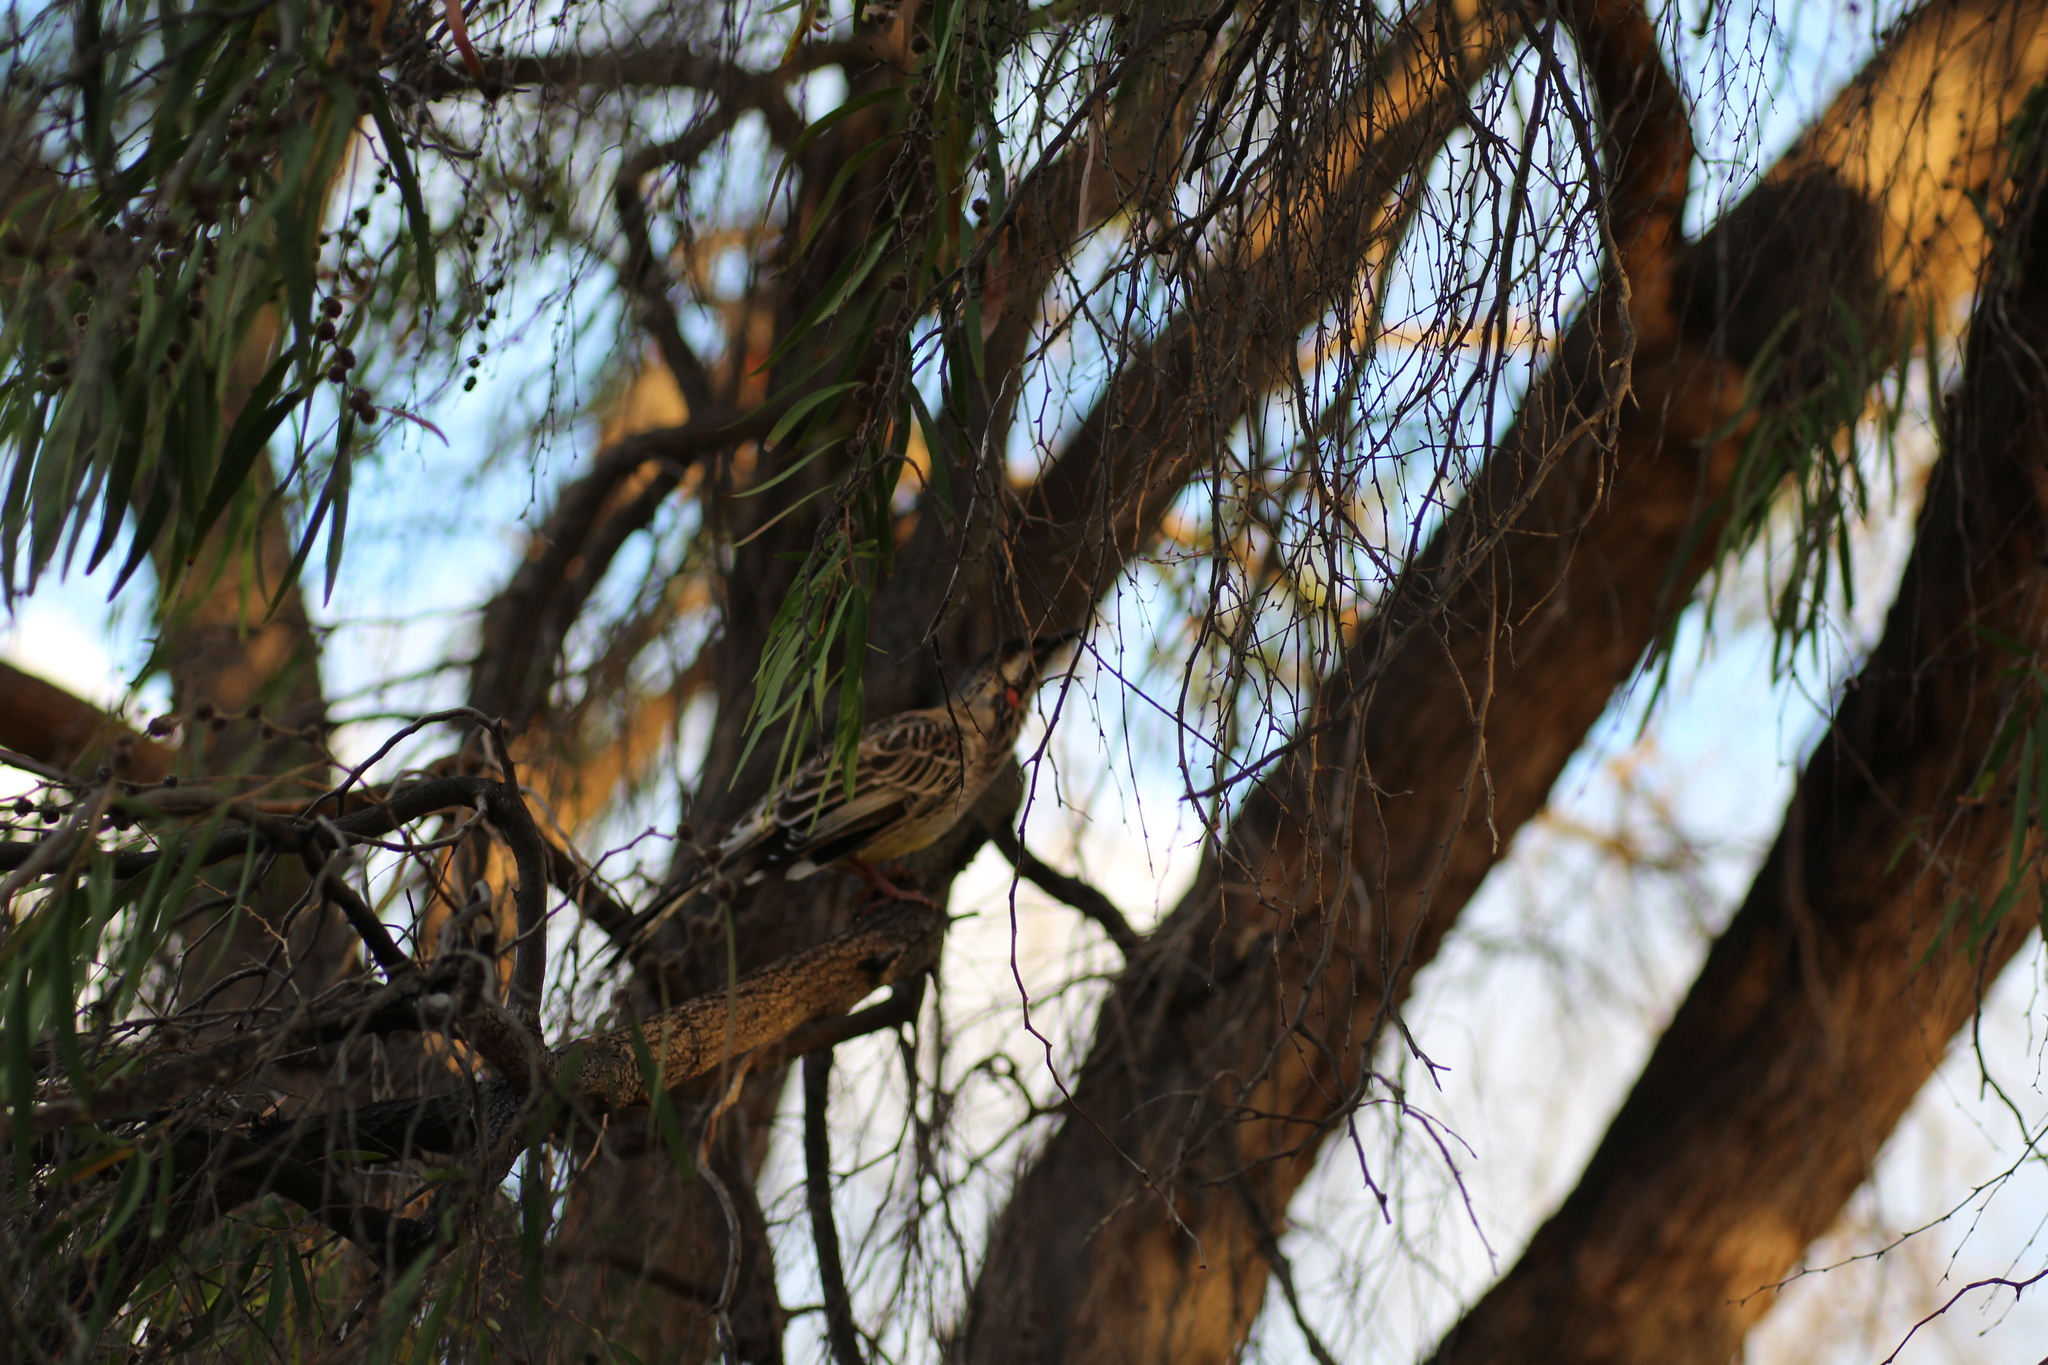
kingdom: Animalia
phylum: Chordata
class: Aves
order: Passeriformes
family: Meliphagidae
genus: Anthochaera
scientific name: Anthochaera carunculata
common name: Red wattlebird
